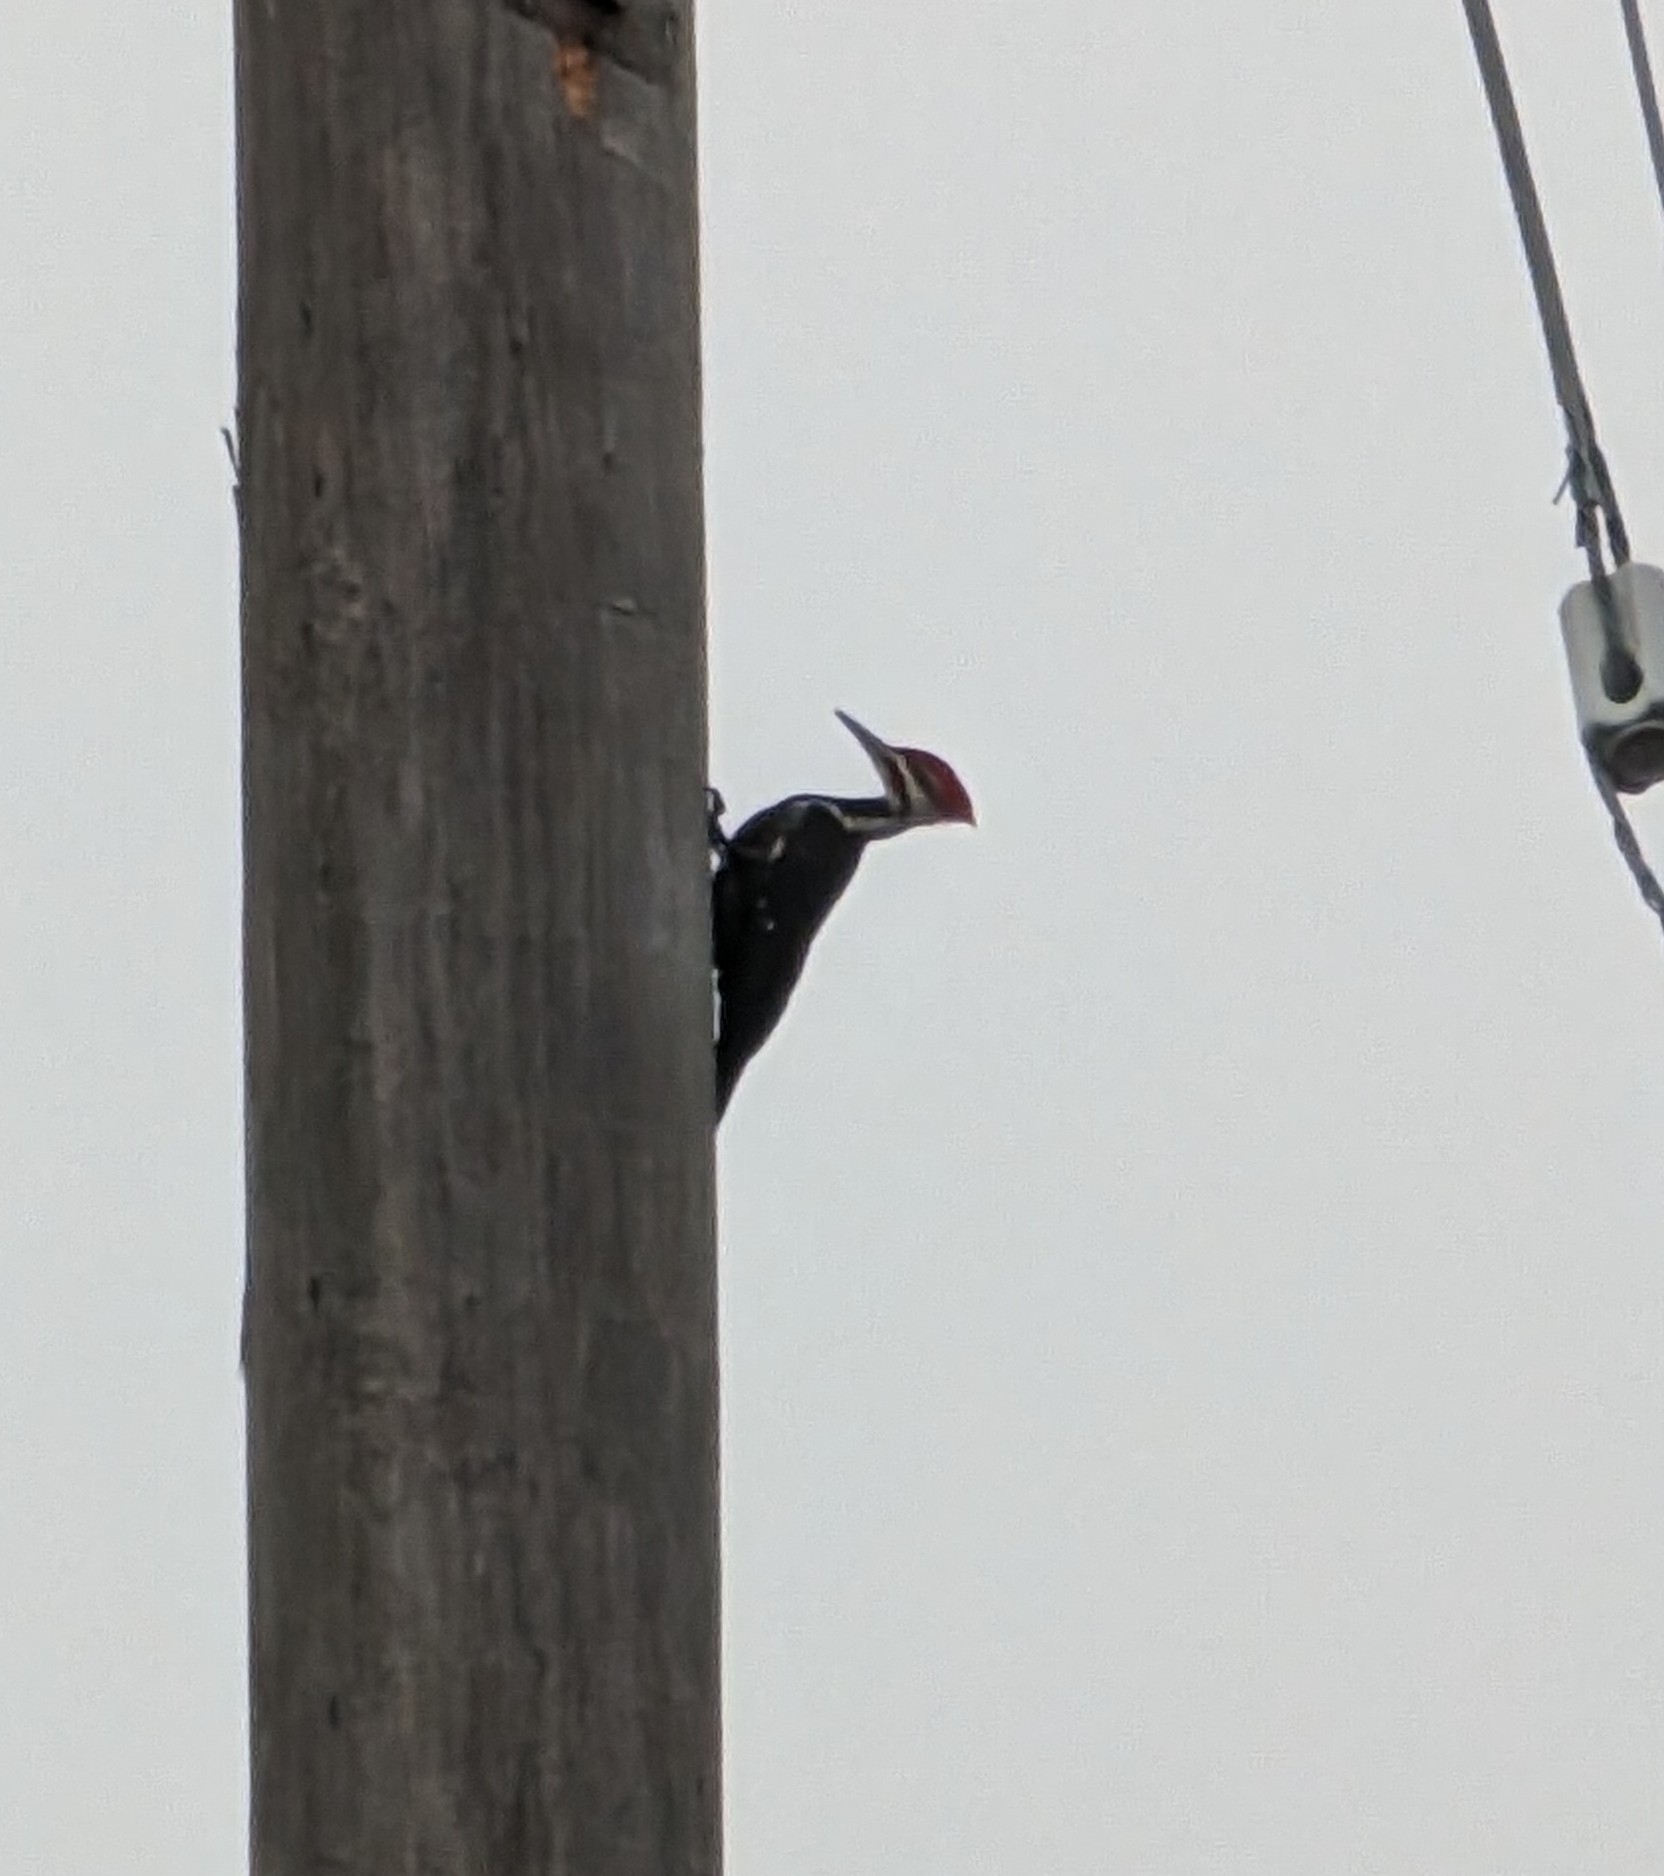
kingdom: Animalia
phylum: Chordata
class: Aves
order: Piciformes
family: Picidae
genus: Dryocopus
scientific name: Dryocopus pileatus
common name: Pileated woodpecker
